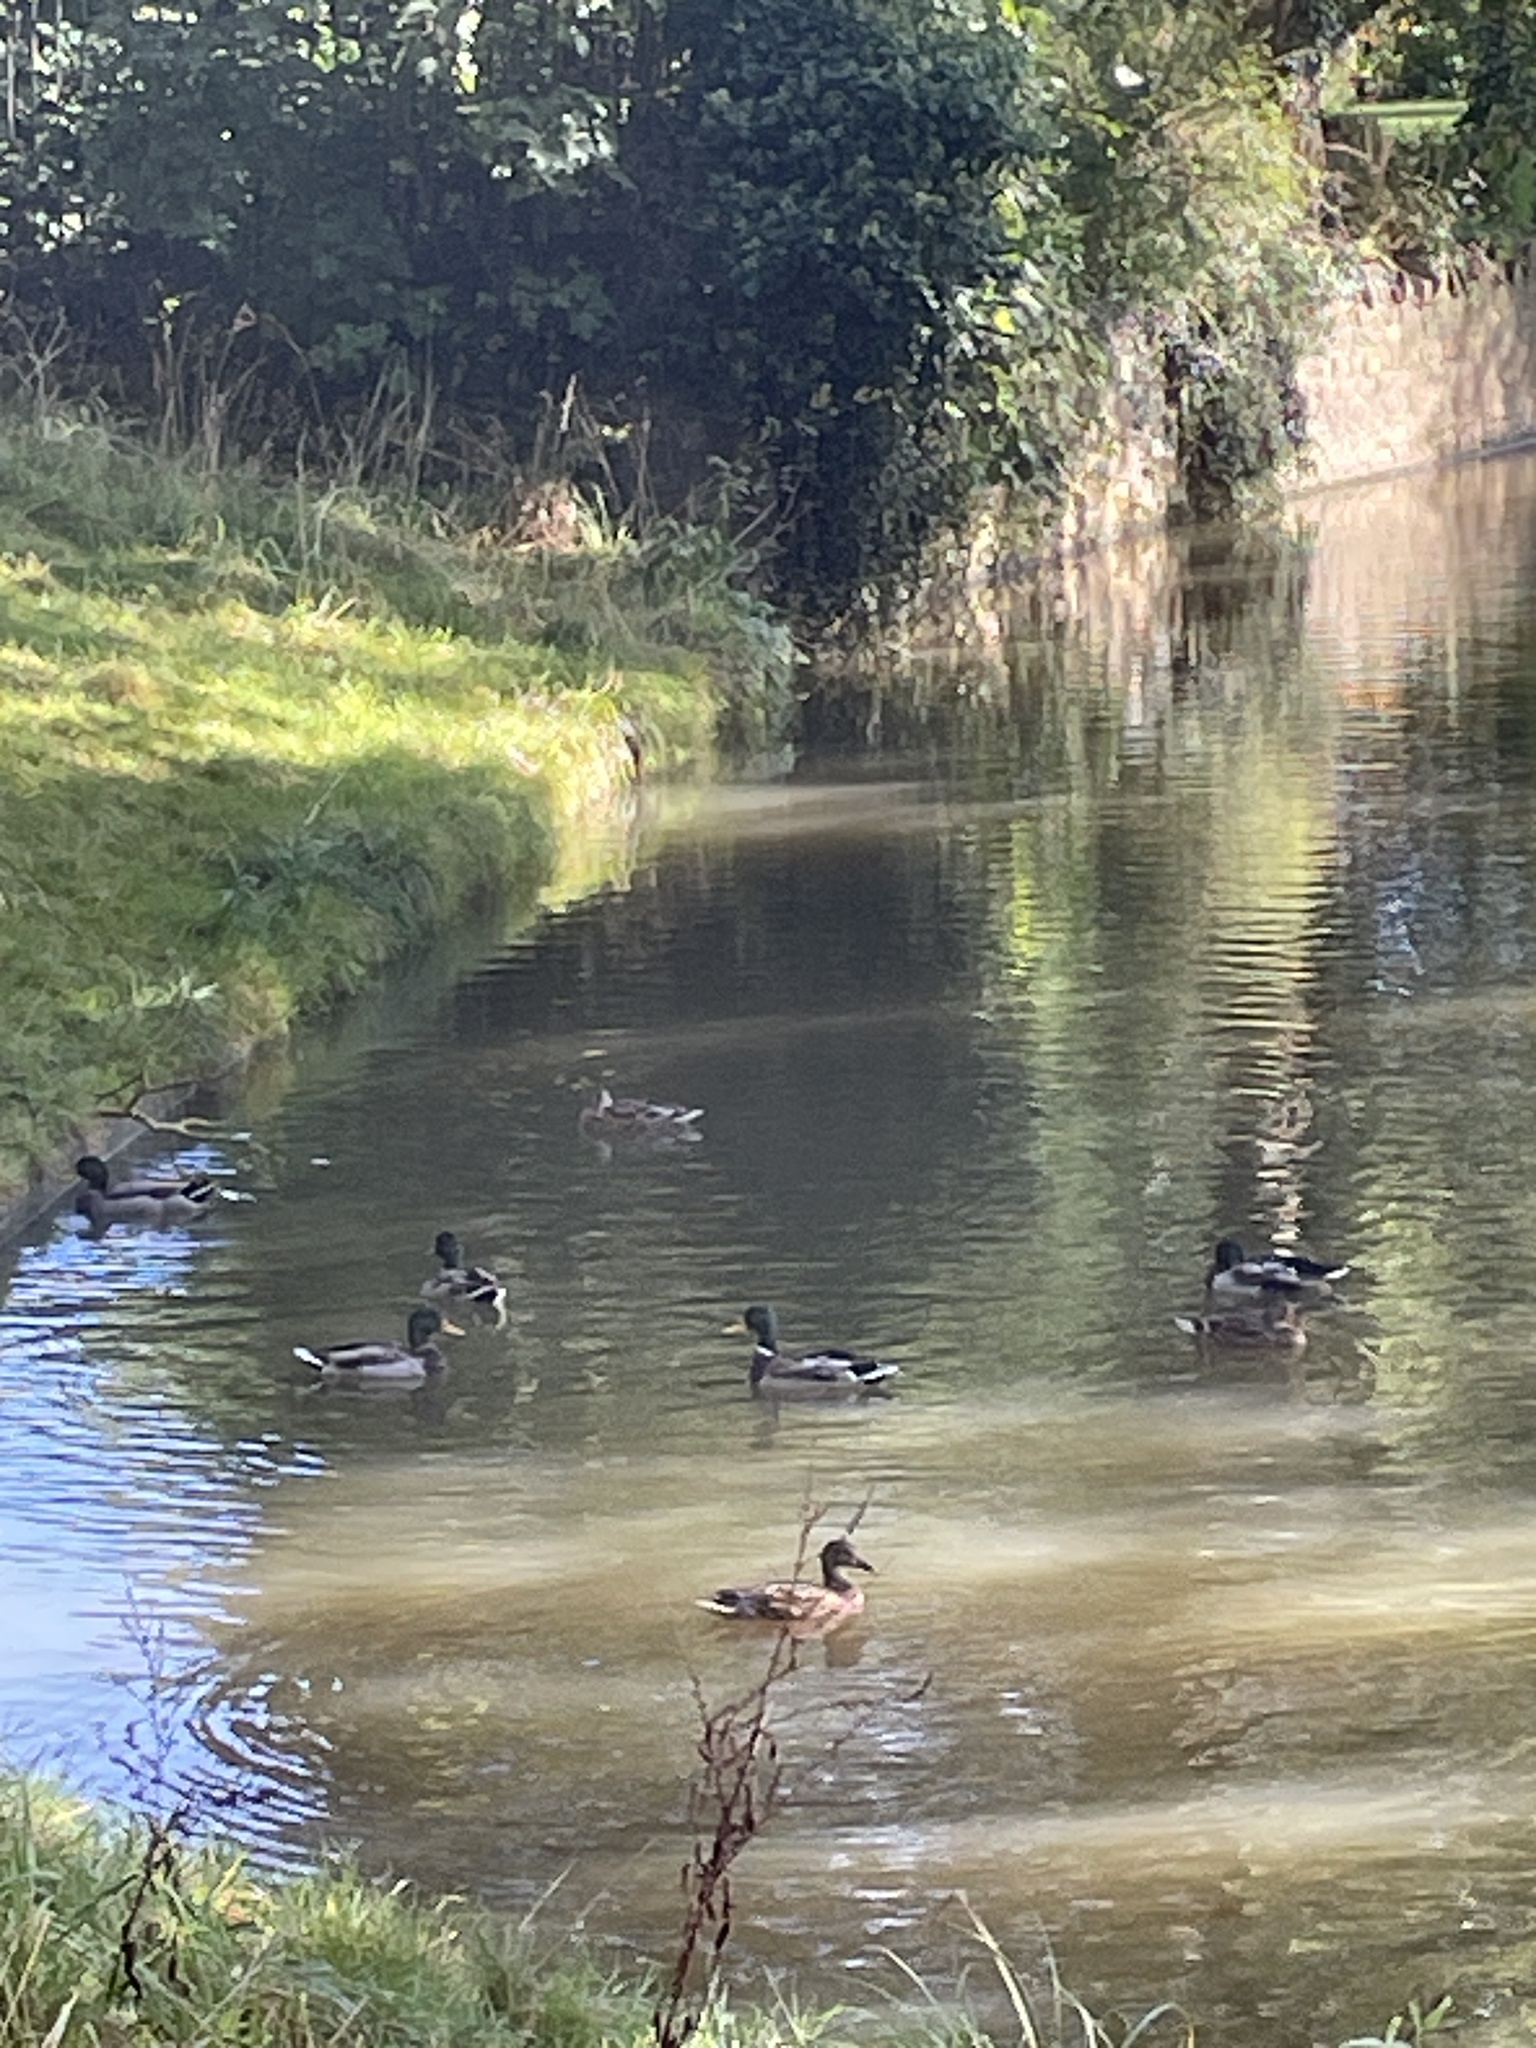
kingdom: Animalia
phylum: Chordata
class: Aves
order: Anseriformes
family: Anatidae
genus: Anas
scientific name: Anas platyrhynchos
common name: Mallard
